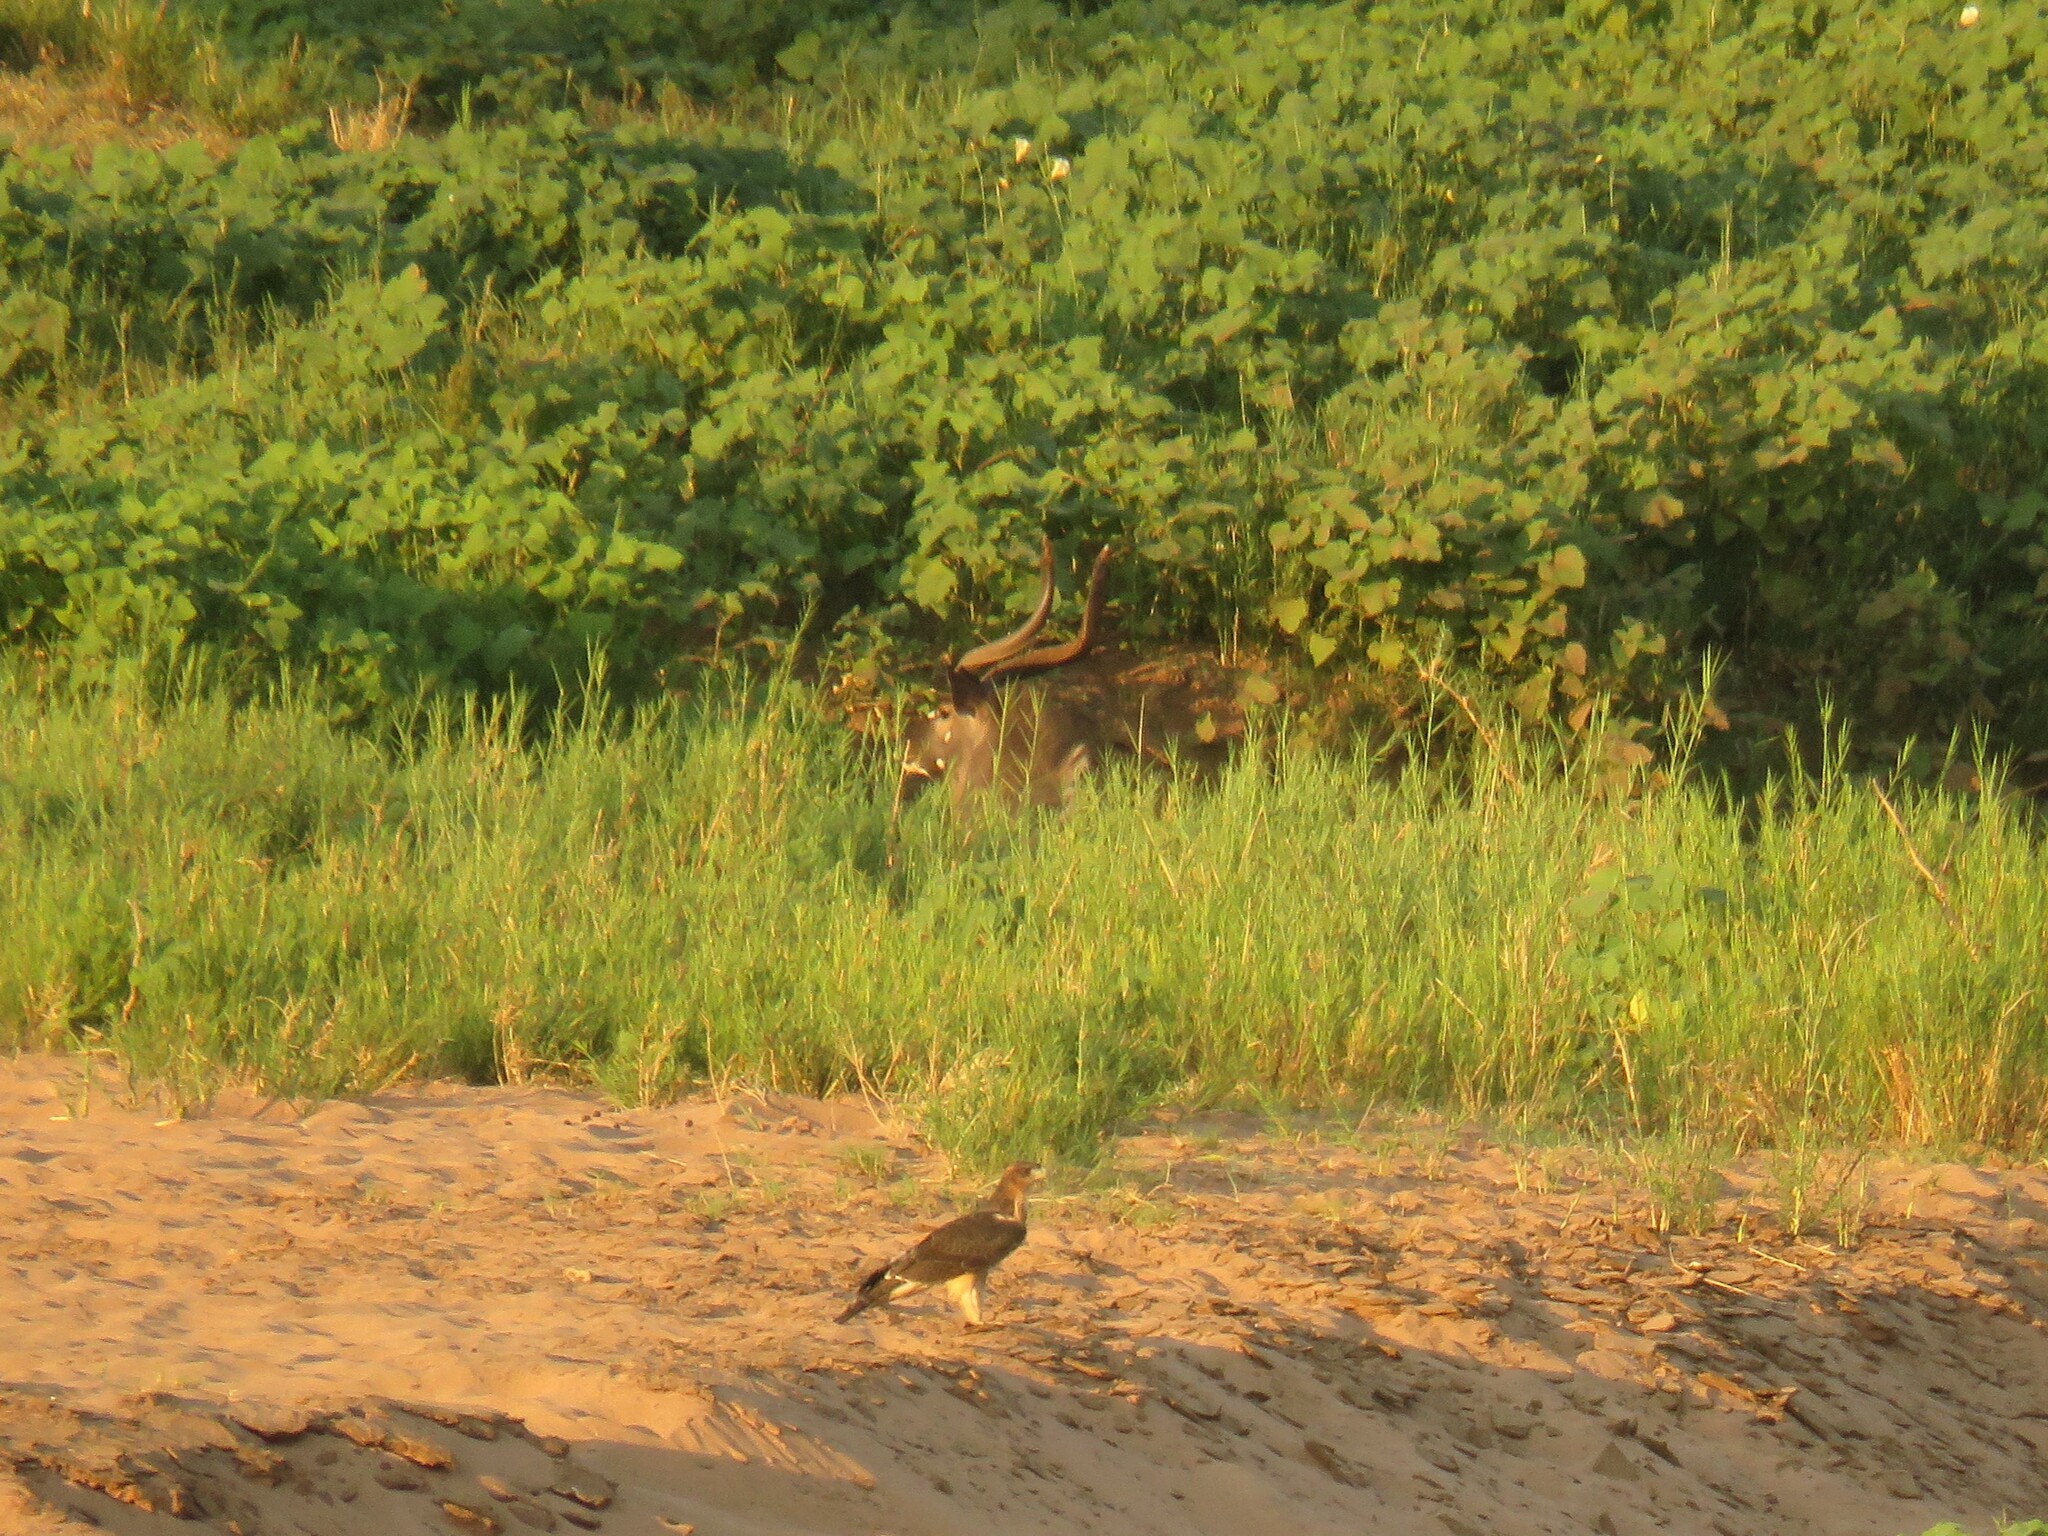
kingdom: Animalia
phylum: Chordata
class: Mammalia
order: Artiodactyla
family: Bovidae
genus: Tragelaphus
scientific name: Tragelaphus angasii
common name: Nyala
